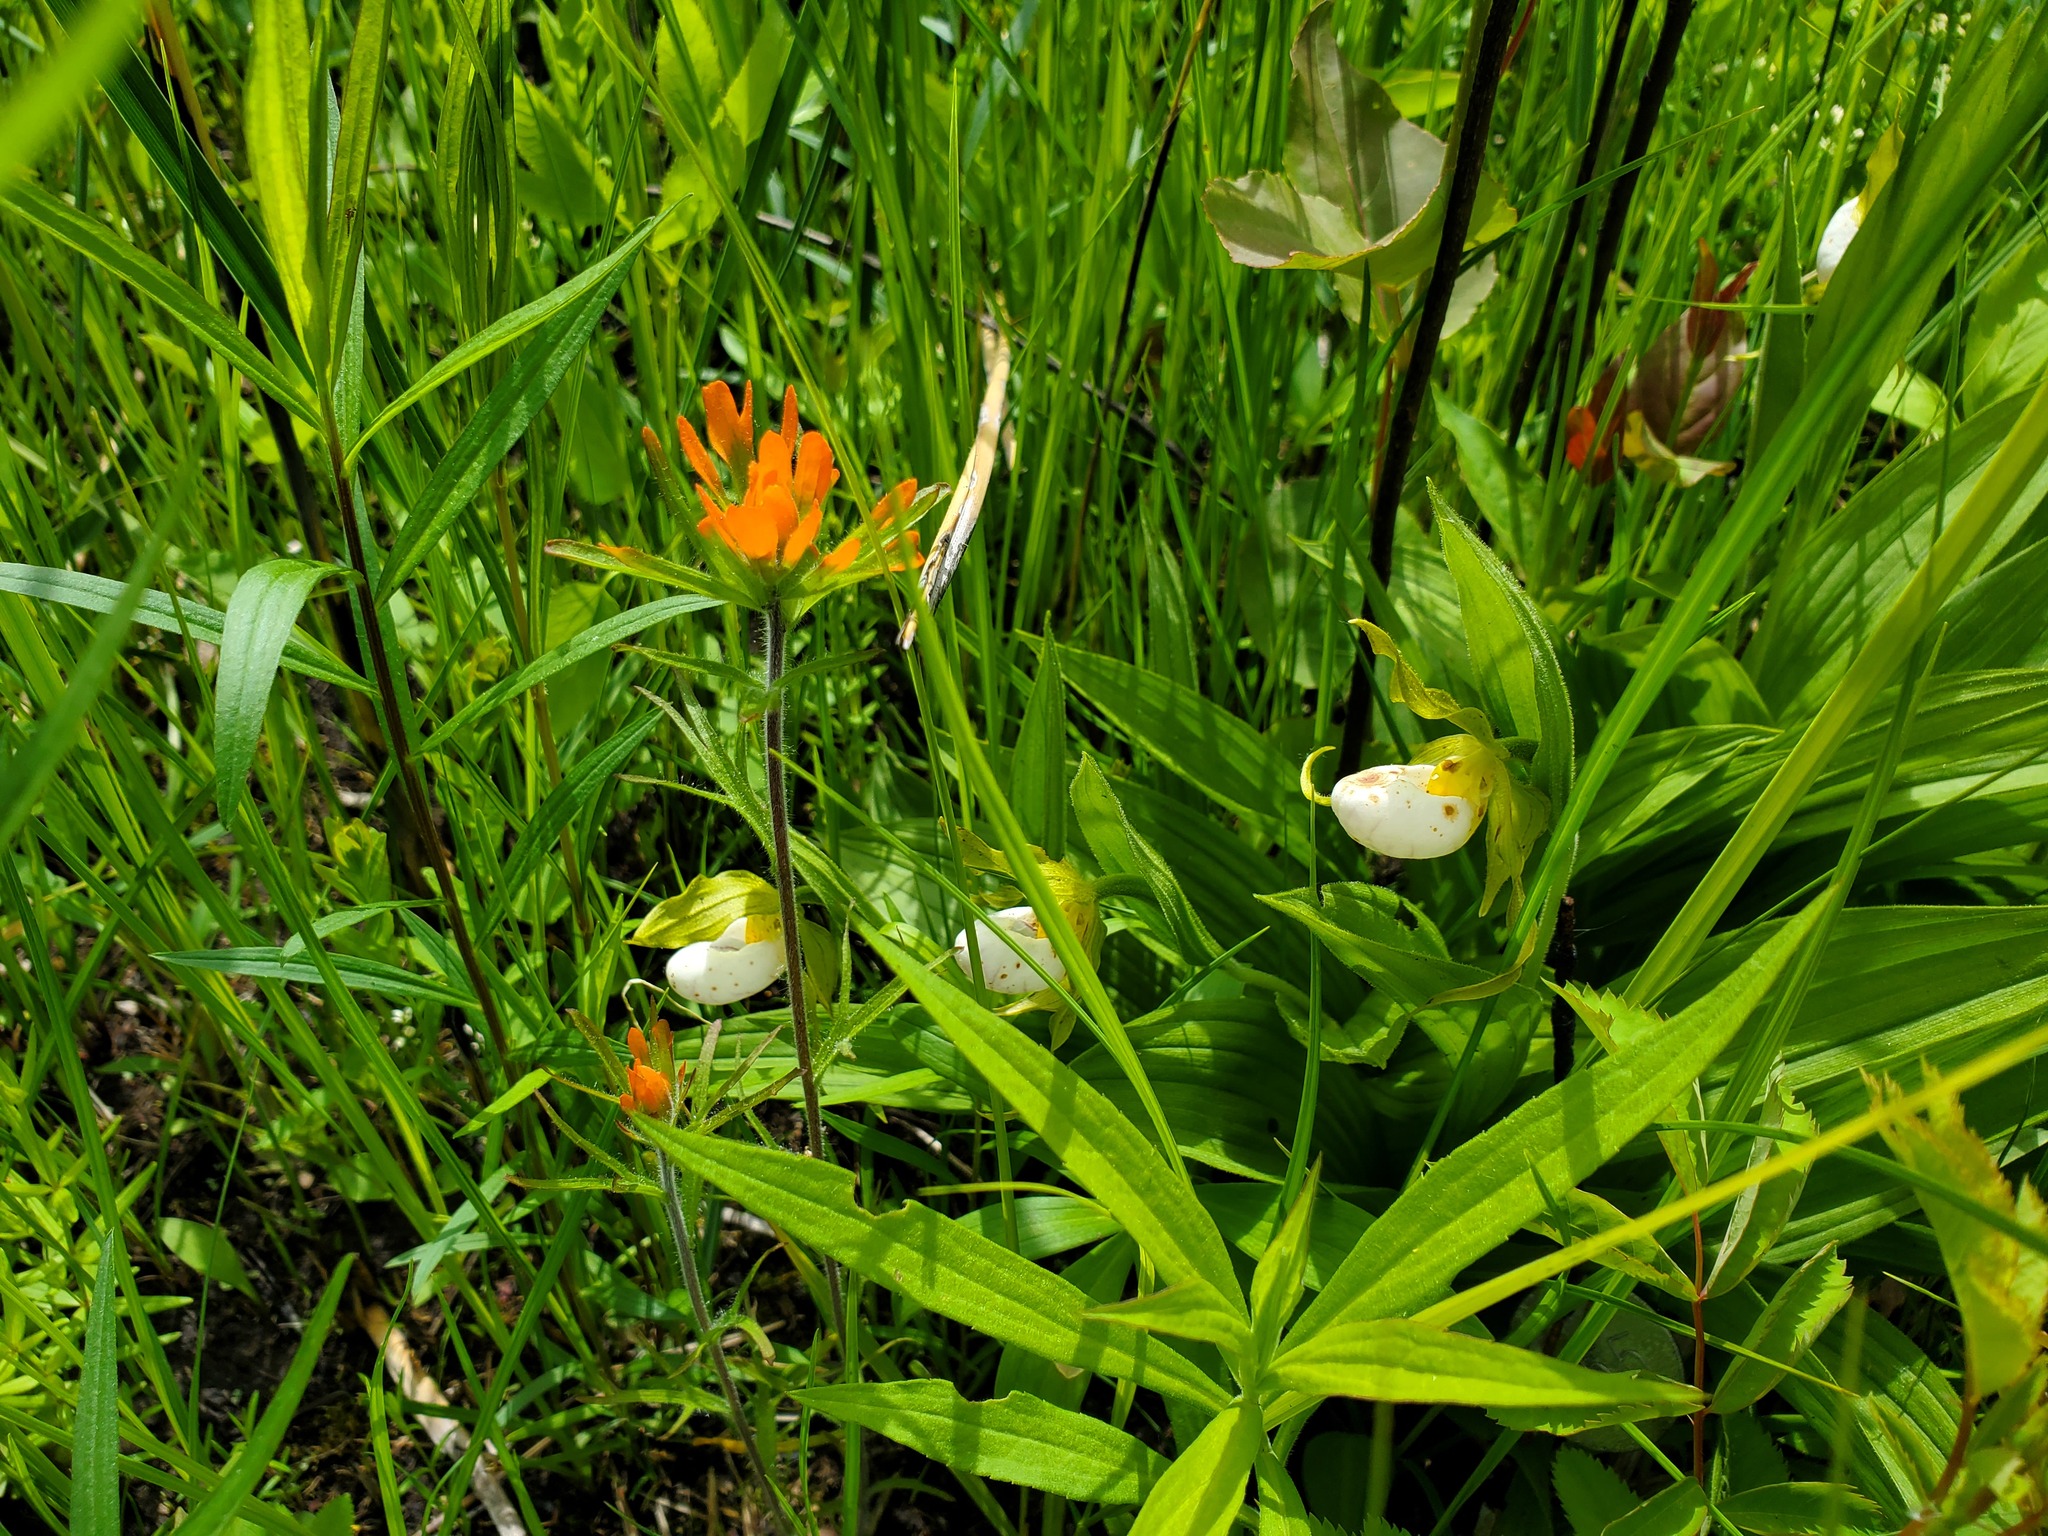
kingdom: Plantae
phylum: Tracheophyta
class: Magnoliopsida
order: Lamiales
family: Orobanchaceae
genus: Castilleja
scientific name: Castilleja coccinea
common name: Scarlet paintbrush
